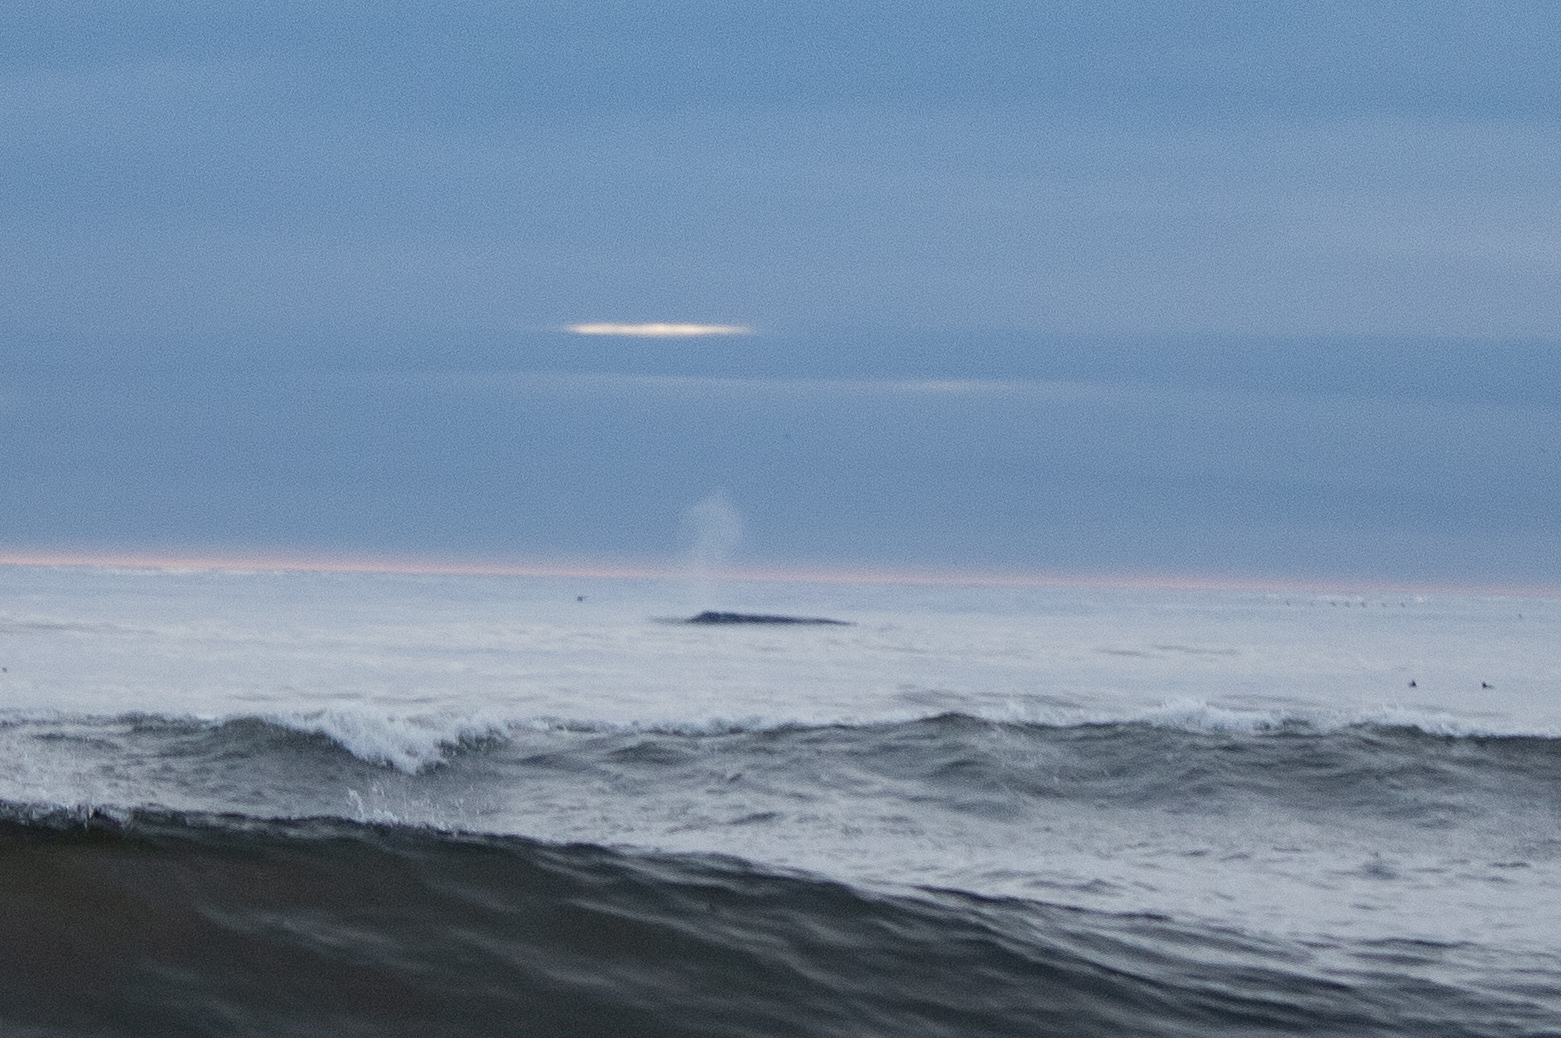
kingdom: Animalia
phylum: Chordata
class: Mammalia
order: Cetacea
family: Eschrichtiidae
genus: Eschrichtius
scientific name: Eschrichtius robustus
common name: Gray whale
